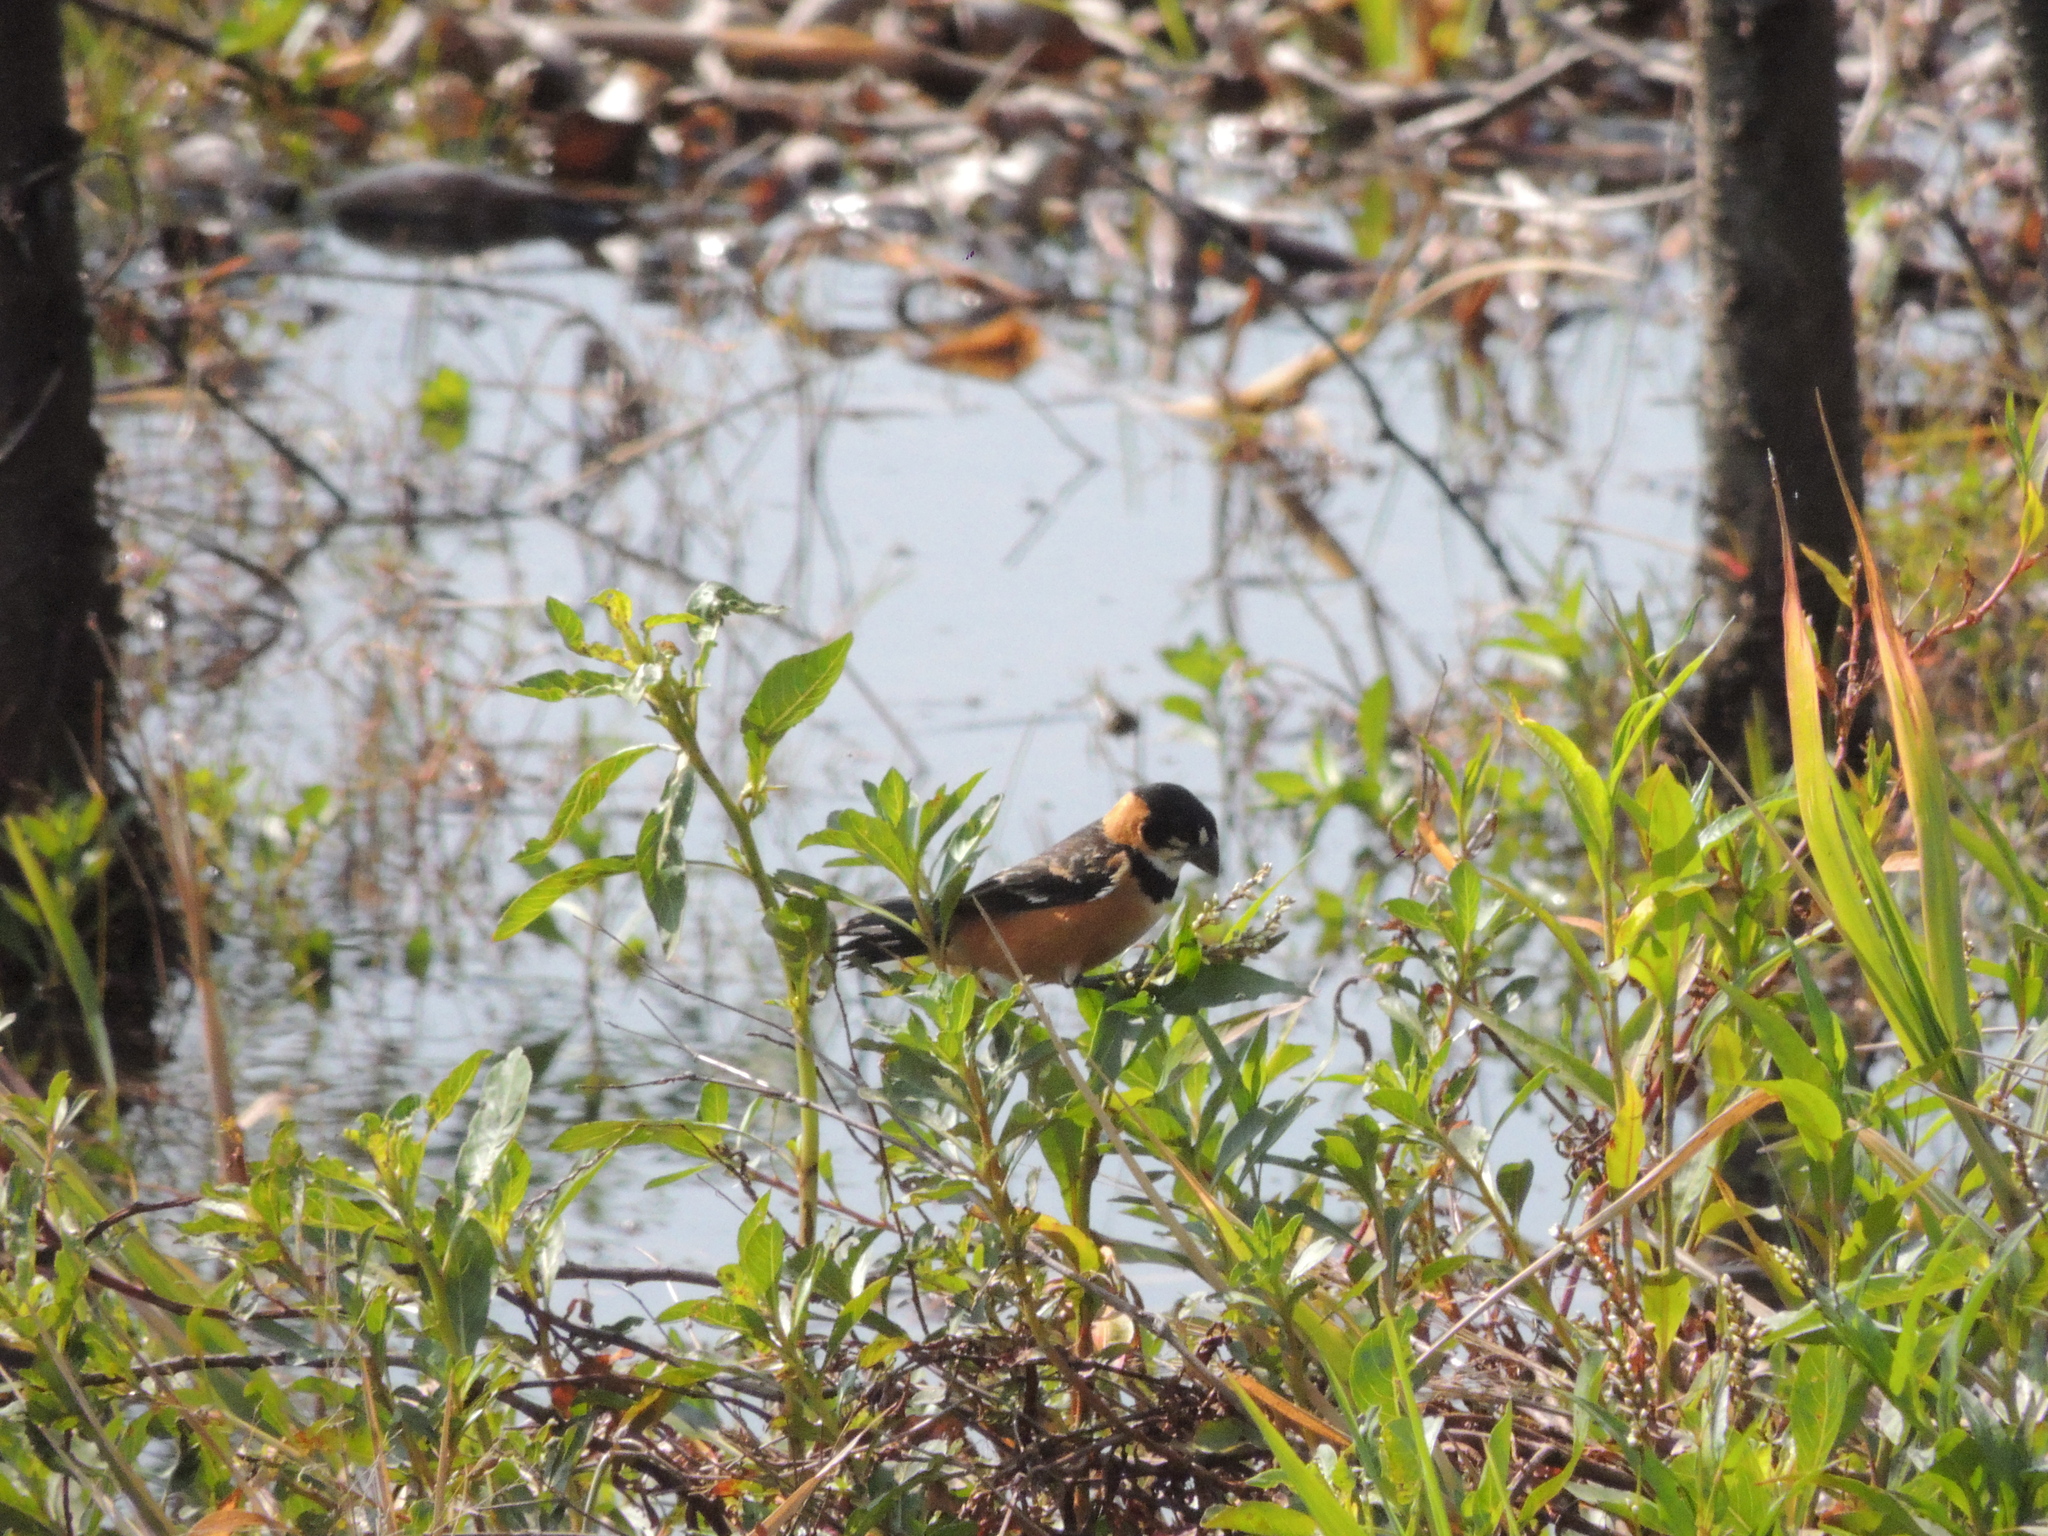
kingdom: Animalia
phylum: Chordata
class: Aves
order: Passeriformes
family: Thraupidae
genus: Sporophila
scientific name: Sporophila collaris
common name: Rusty-collared seedeater
